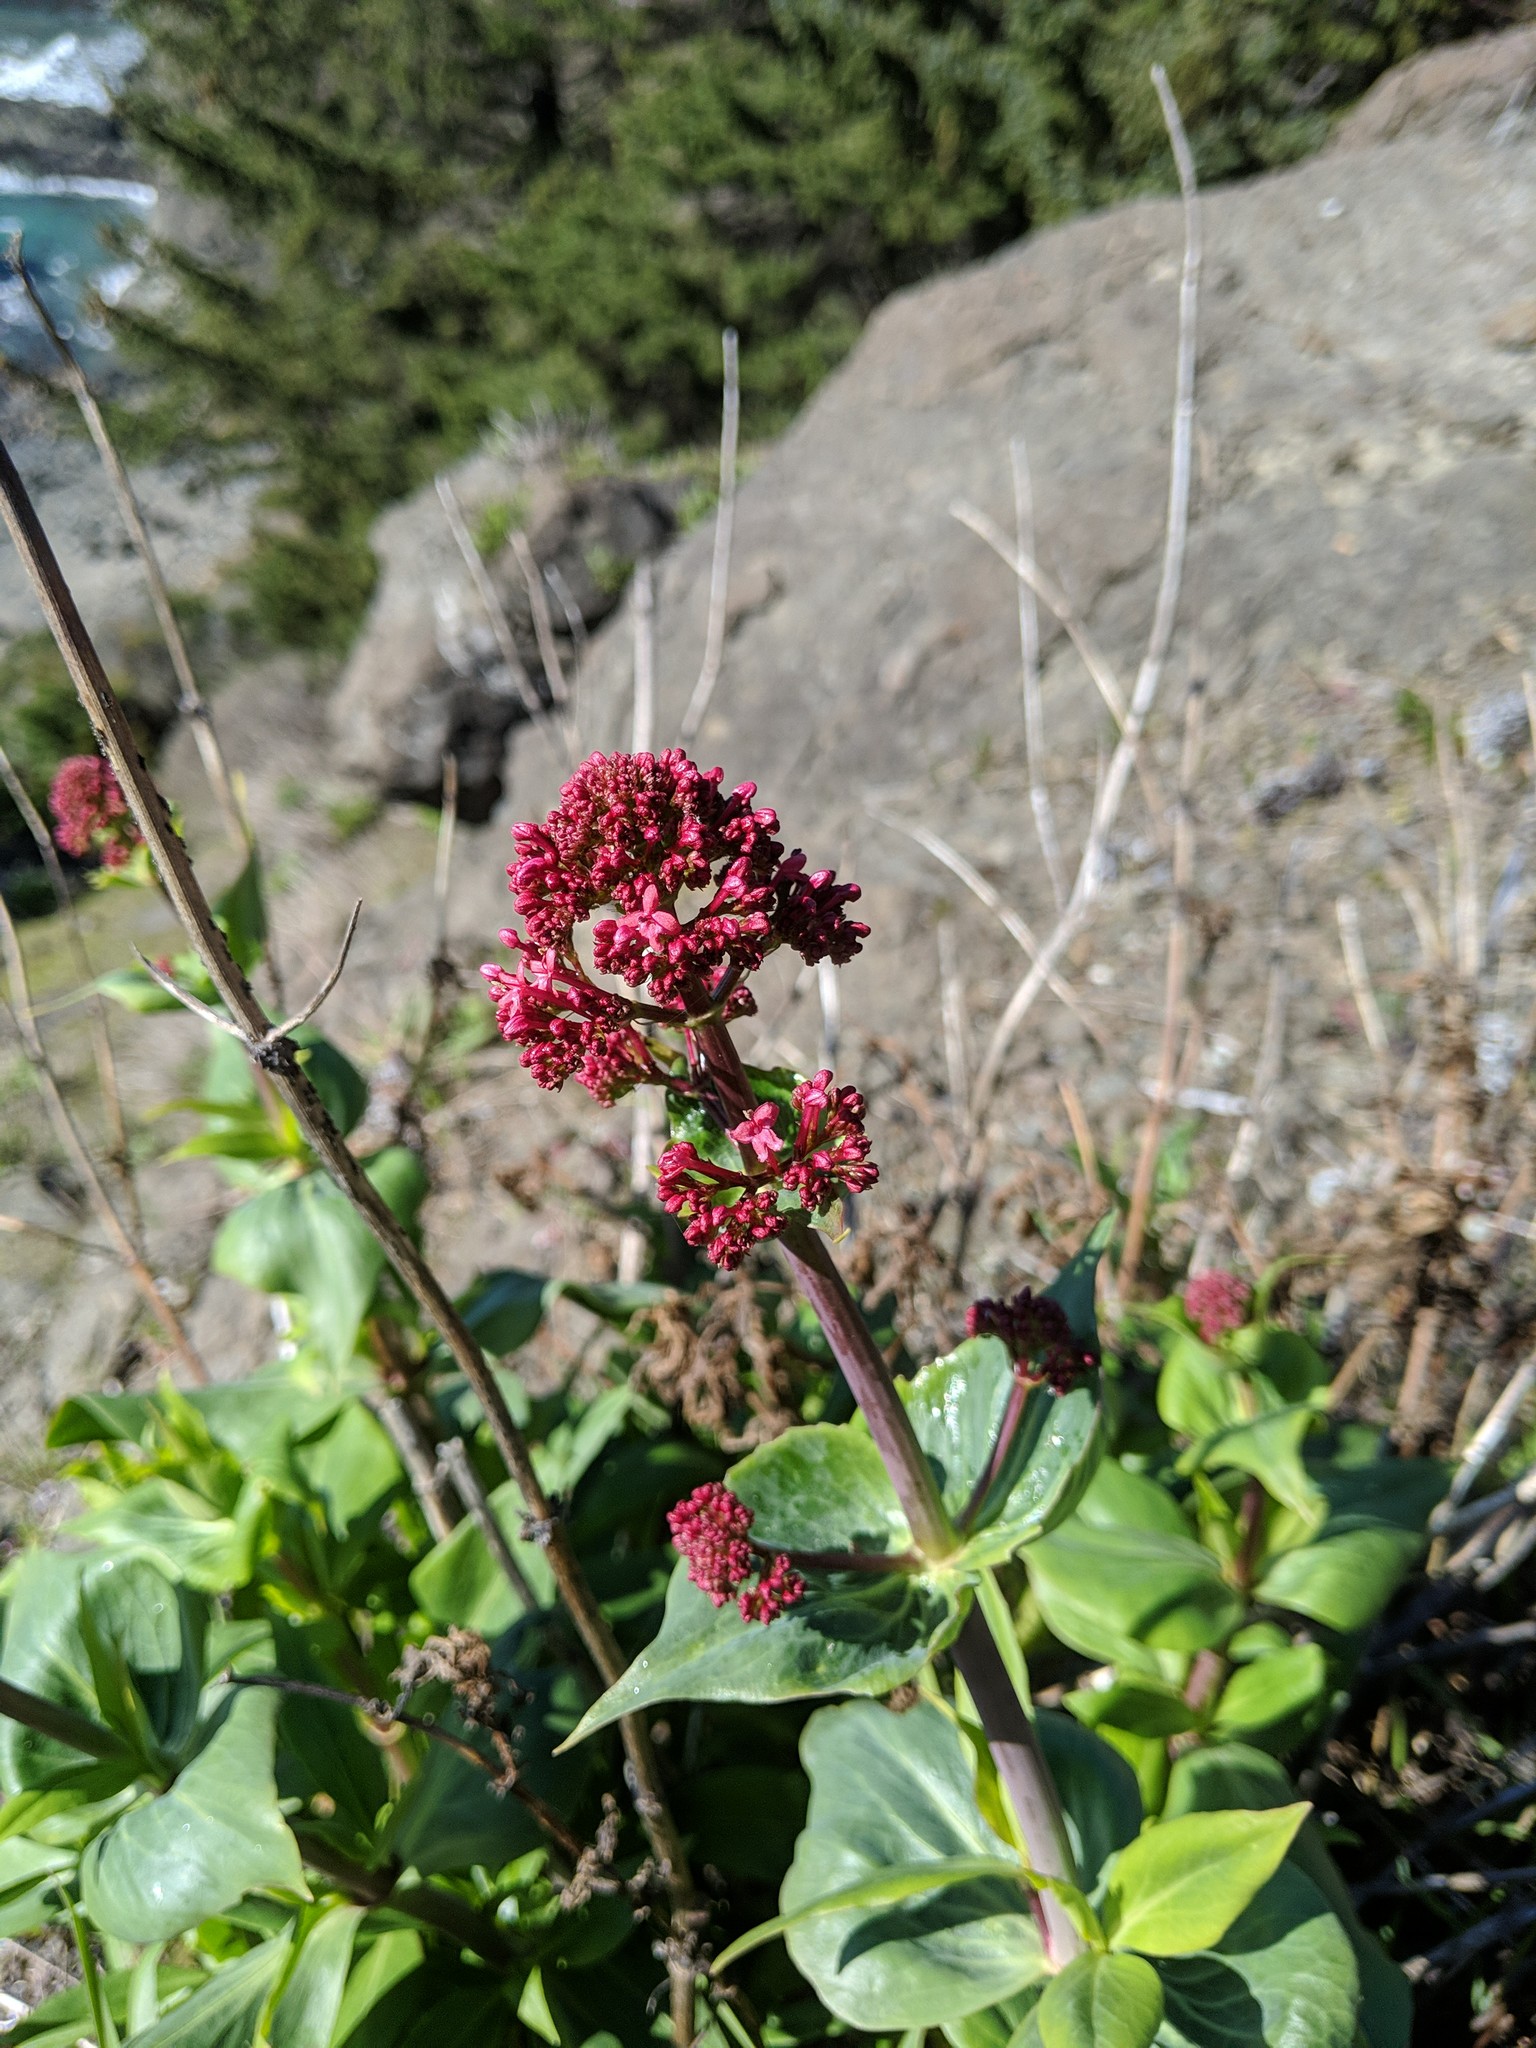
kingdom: Plantae
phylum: Tracheophyta
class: Magnoliopsida
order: Dipsacales
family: Caprifoliaceae
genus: Centranthus
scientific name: Centranthus ruber
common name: Red valerian
